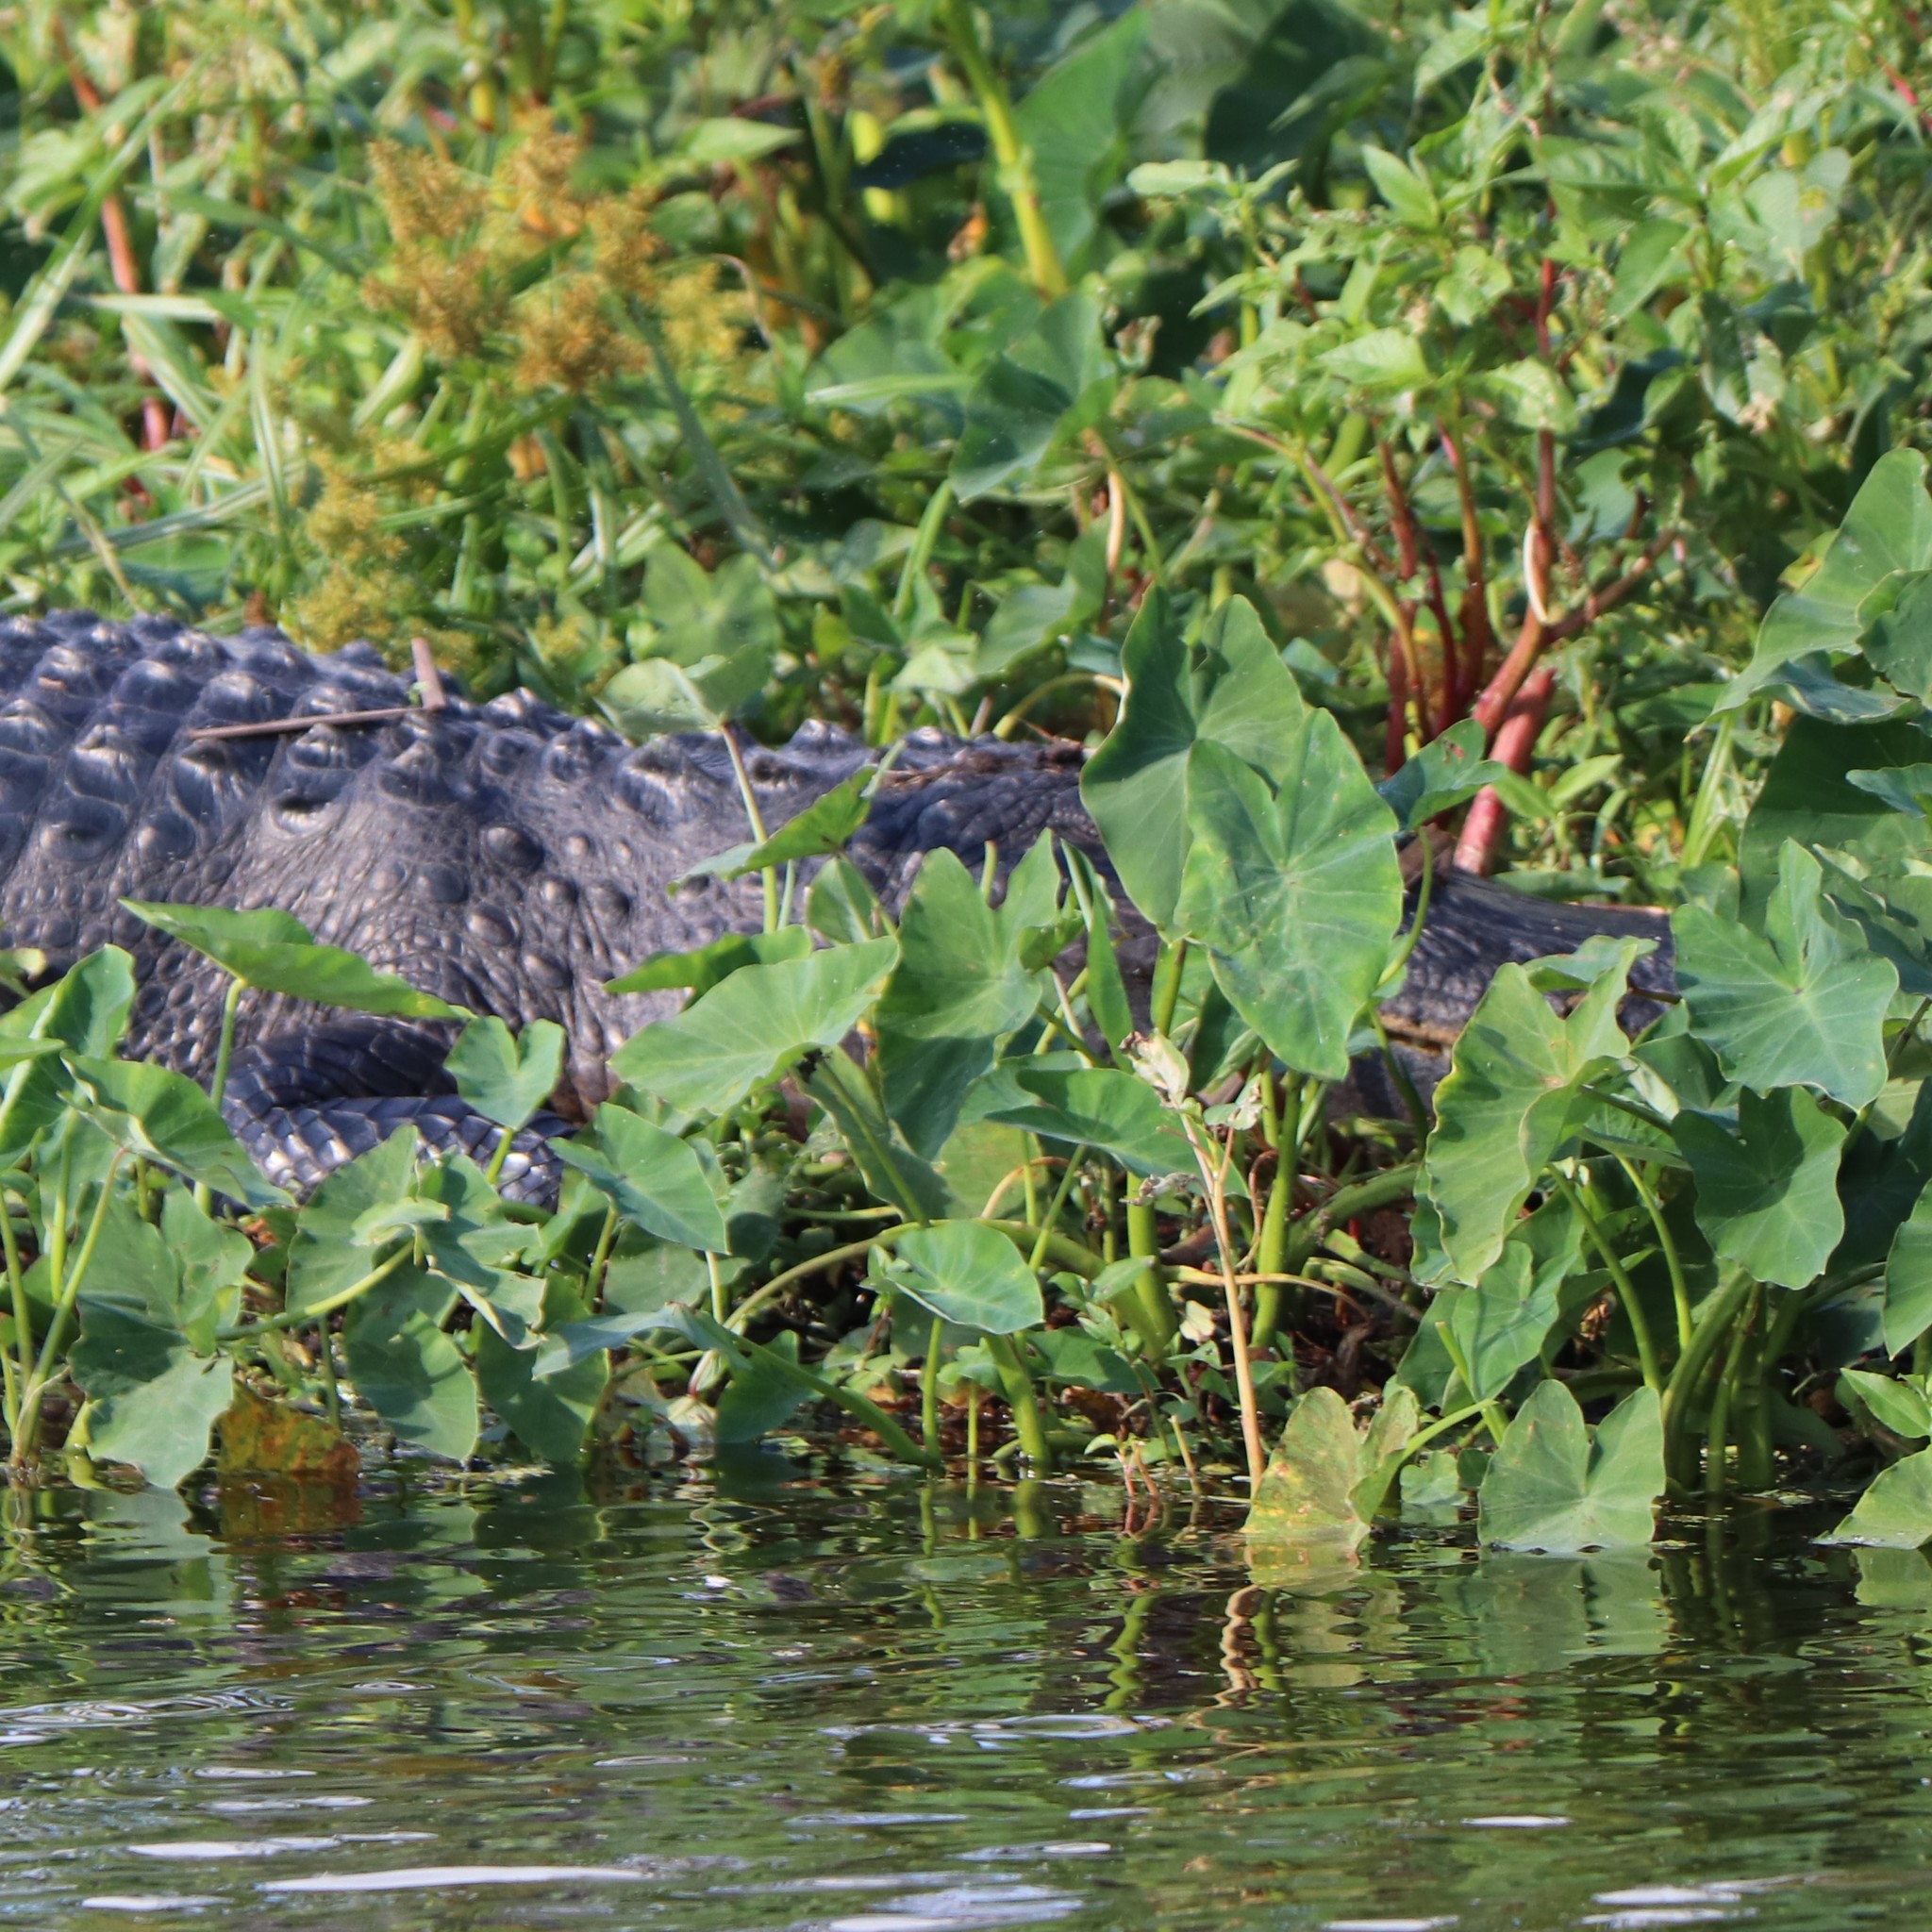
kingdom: Animalia
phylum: Chordata
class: Crocodylia
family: Alligatoridae
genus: Alligator
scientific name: Alligator mississippiensis
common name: American alligator
